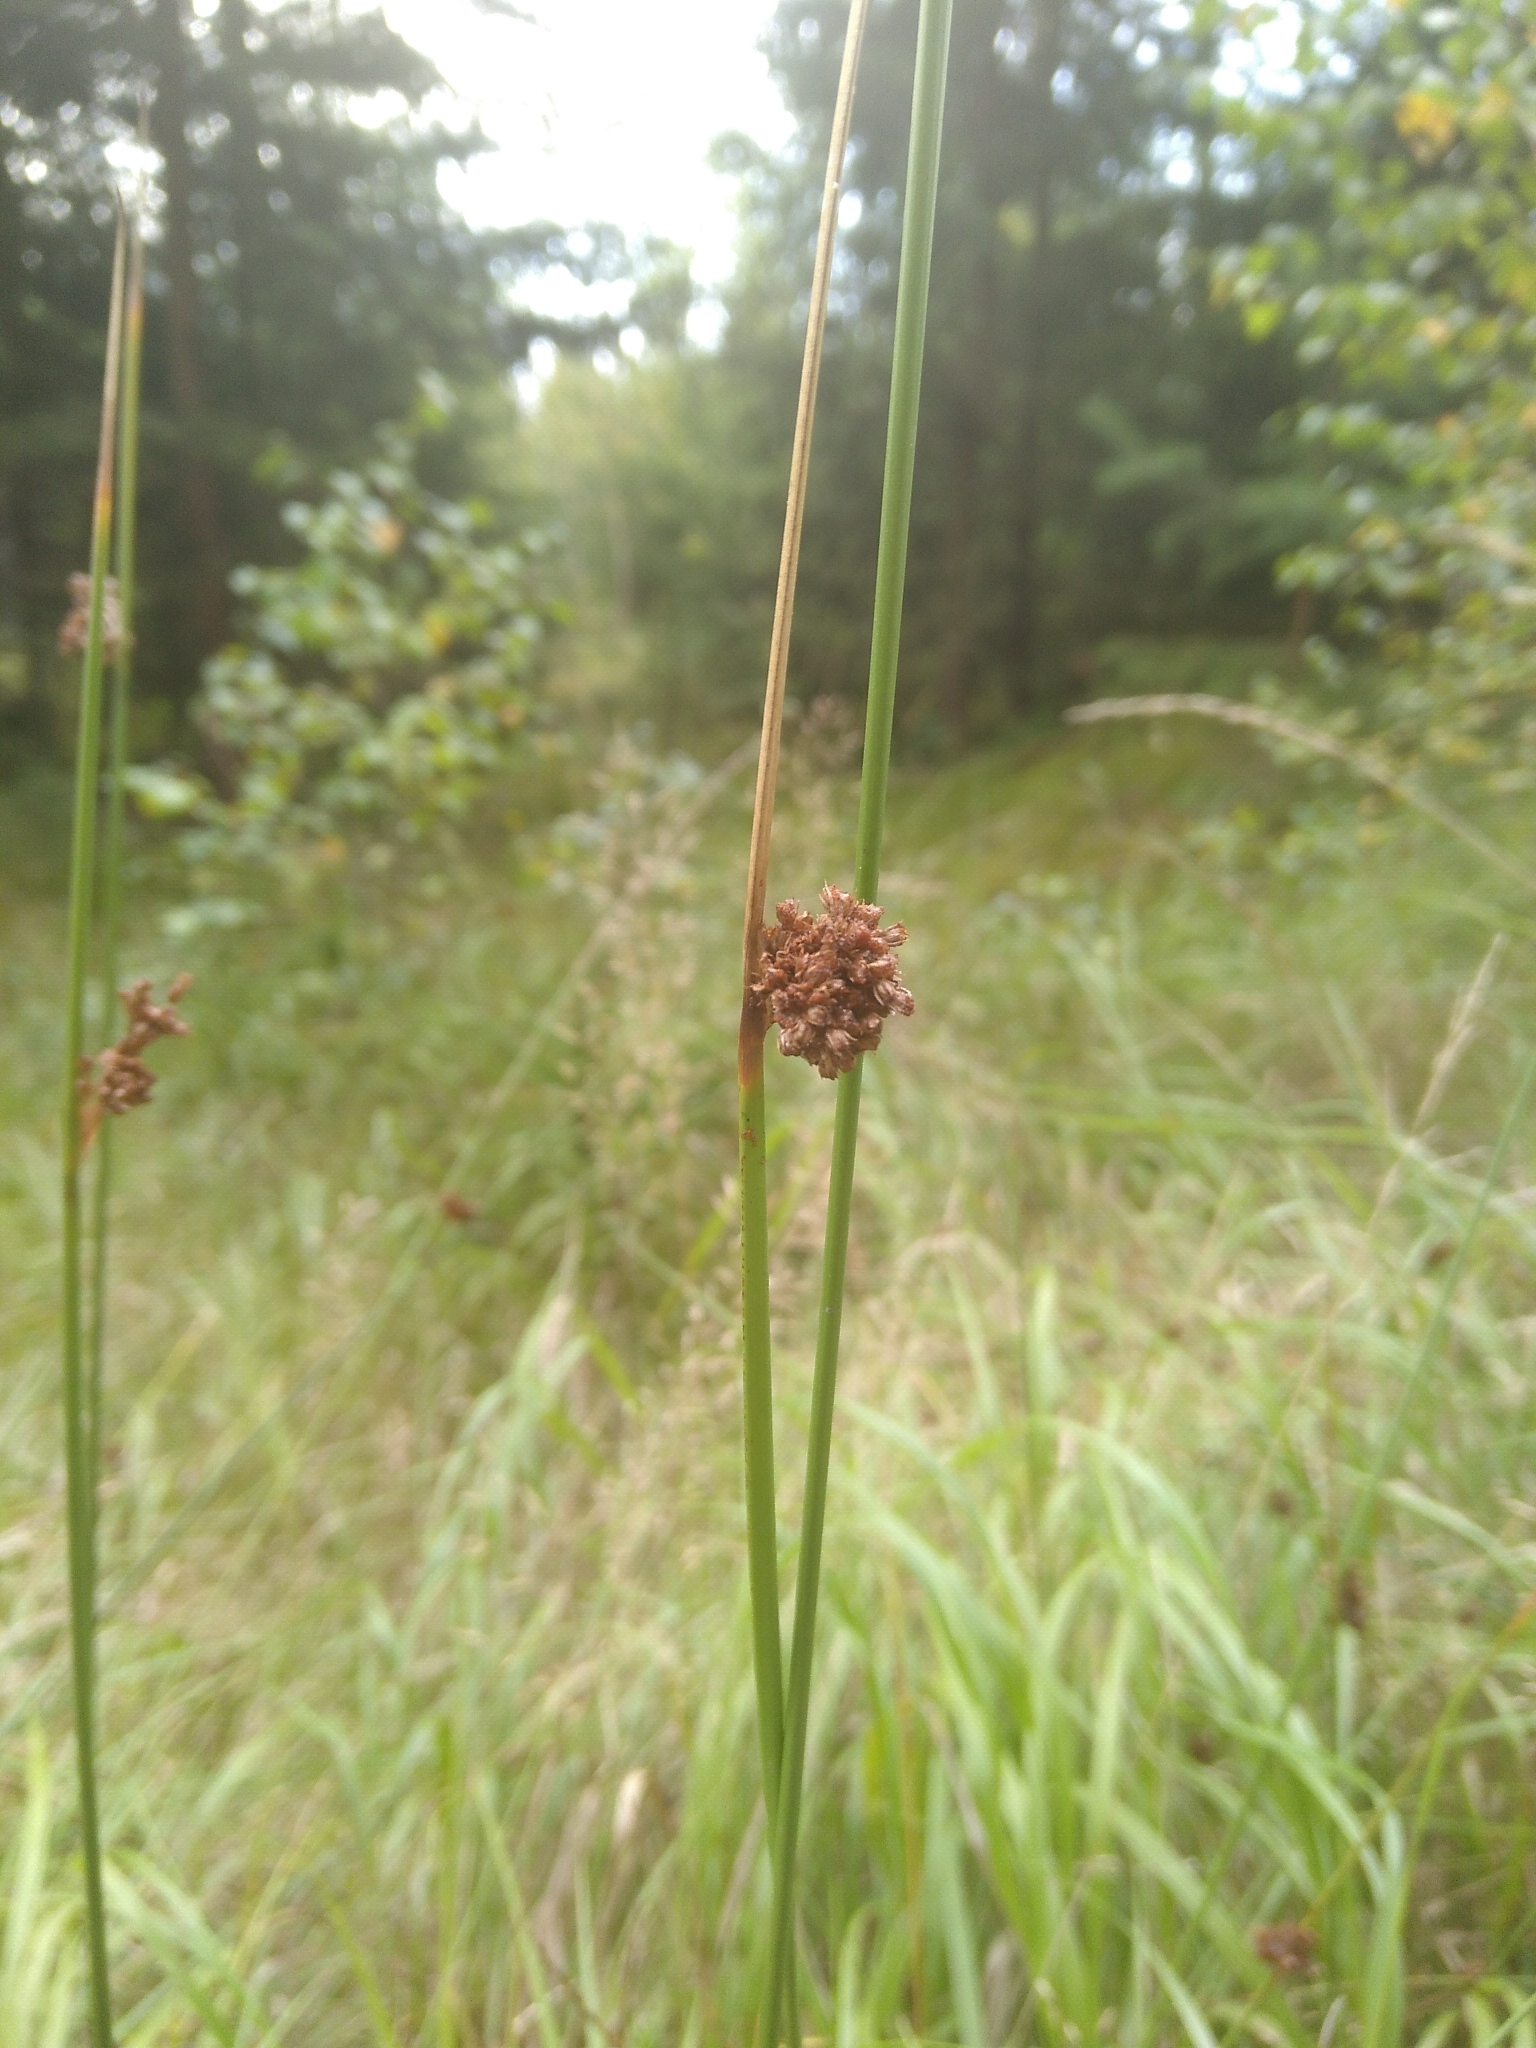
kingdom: Plantae
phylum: Tracheophyta
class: Liliopsida
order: Poales
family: Juncaceae
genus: Juncus
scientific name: Juncus effusus
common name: Soft rush
